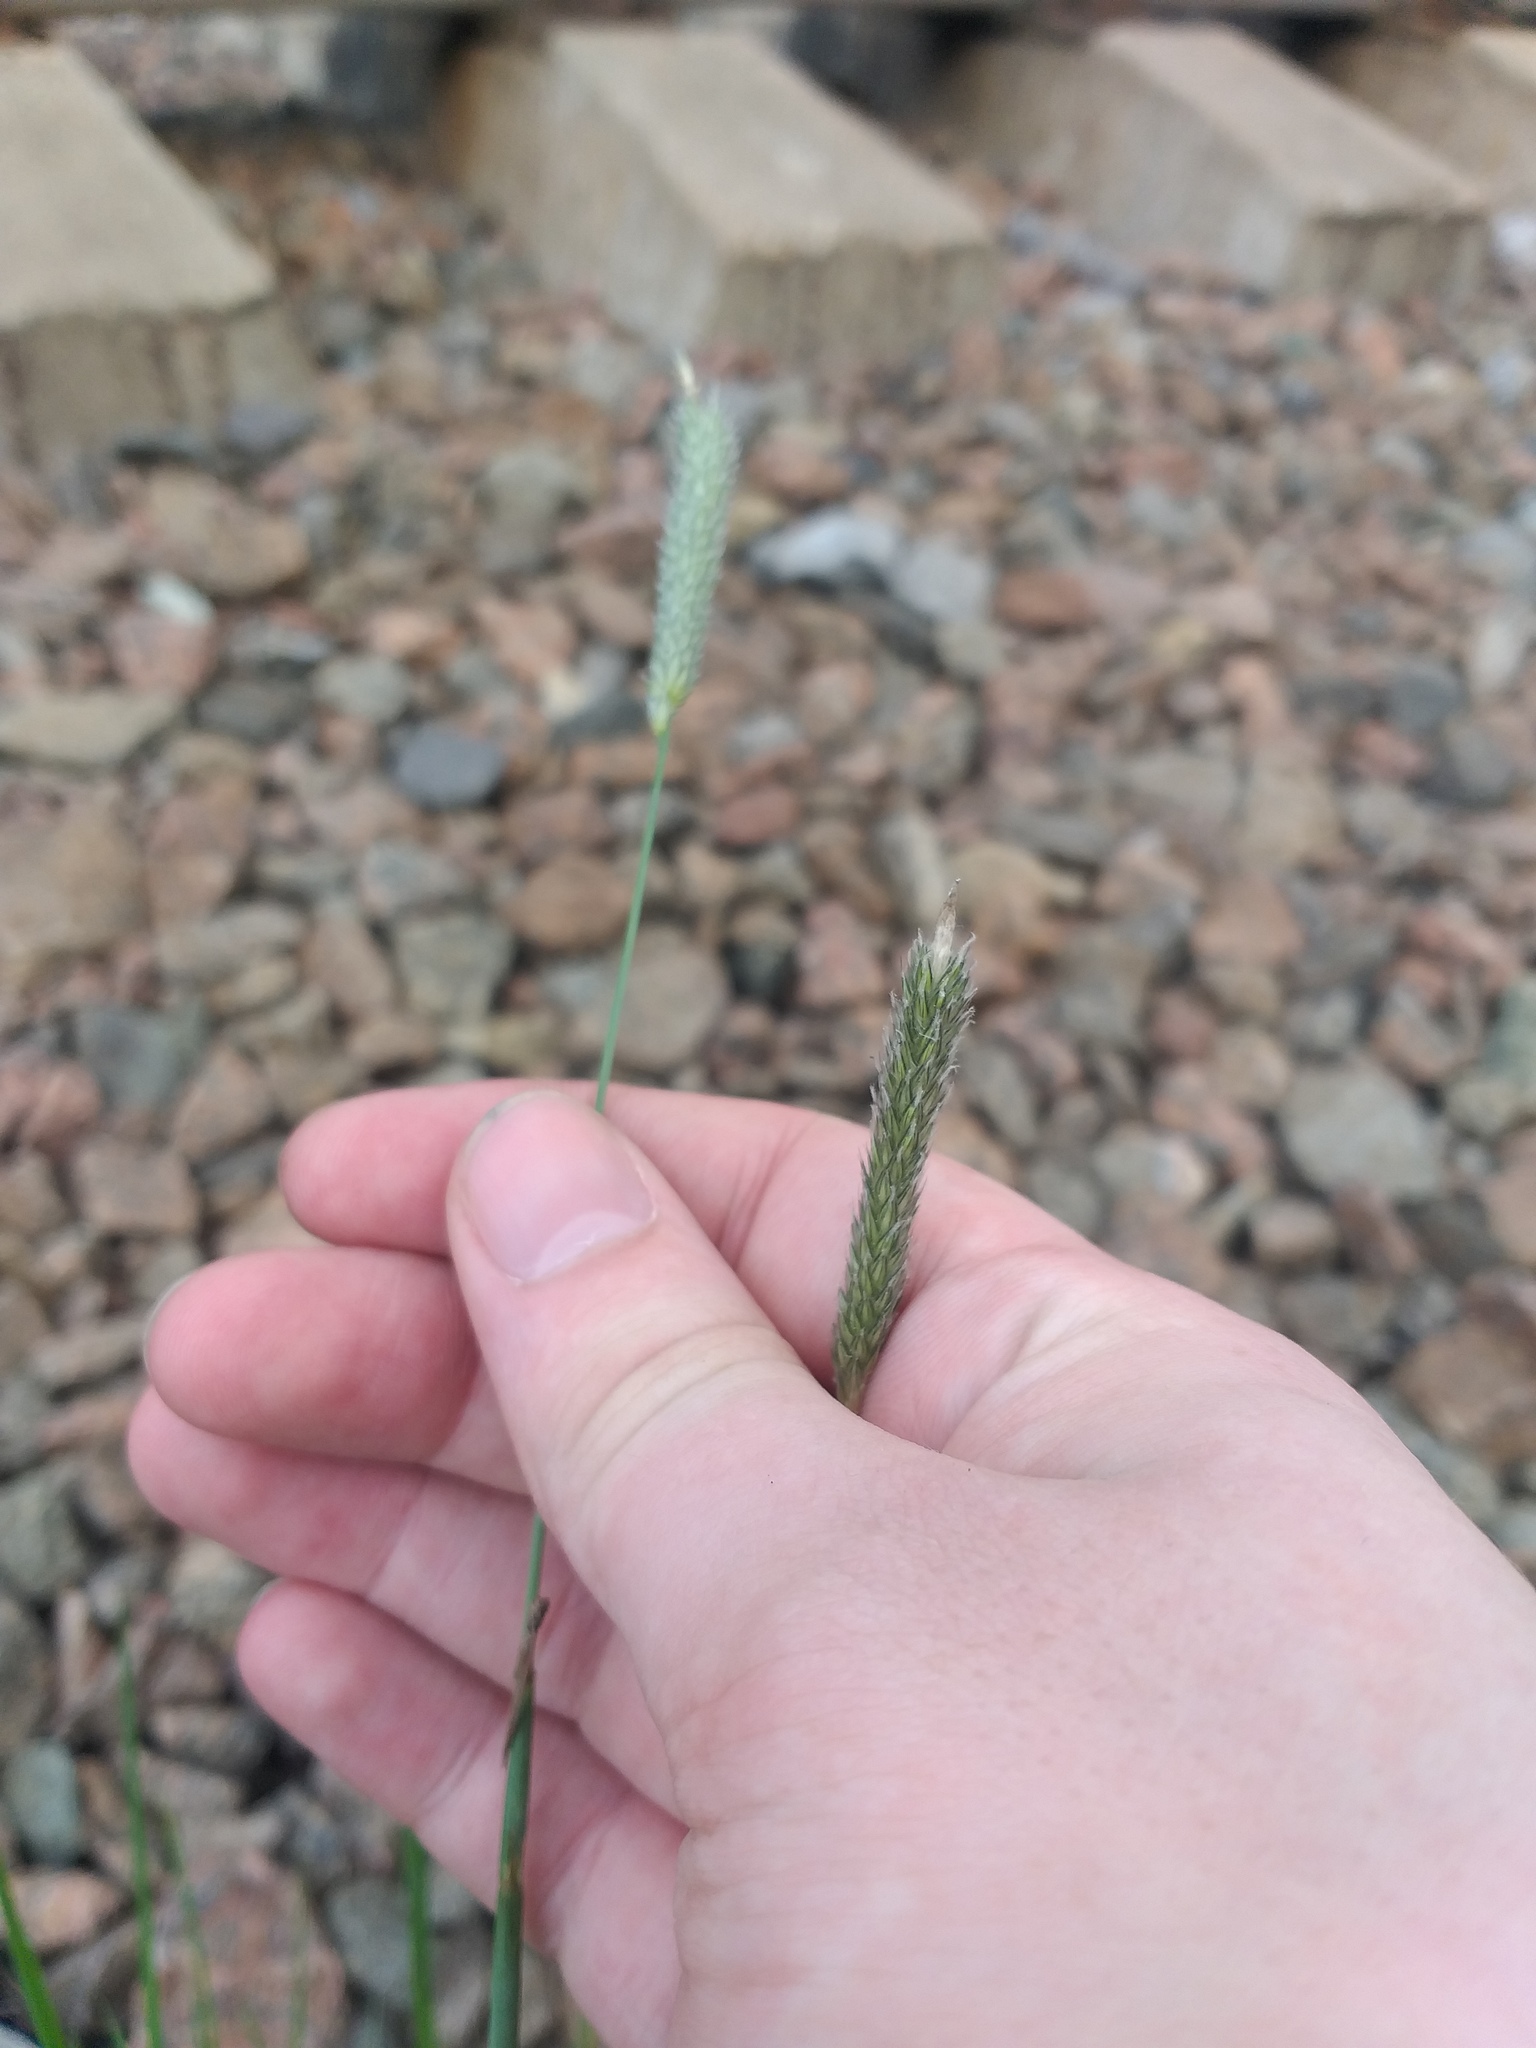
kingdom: Plantae
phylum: Tracheophyta
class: Liliopsida
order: Poales
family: Poaceae
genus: Alopecurus
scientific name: Alopecurus pratensis
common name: Meadow foxtail
